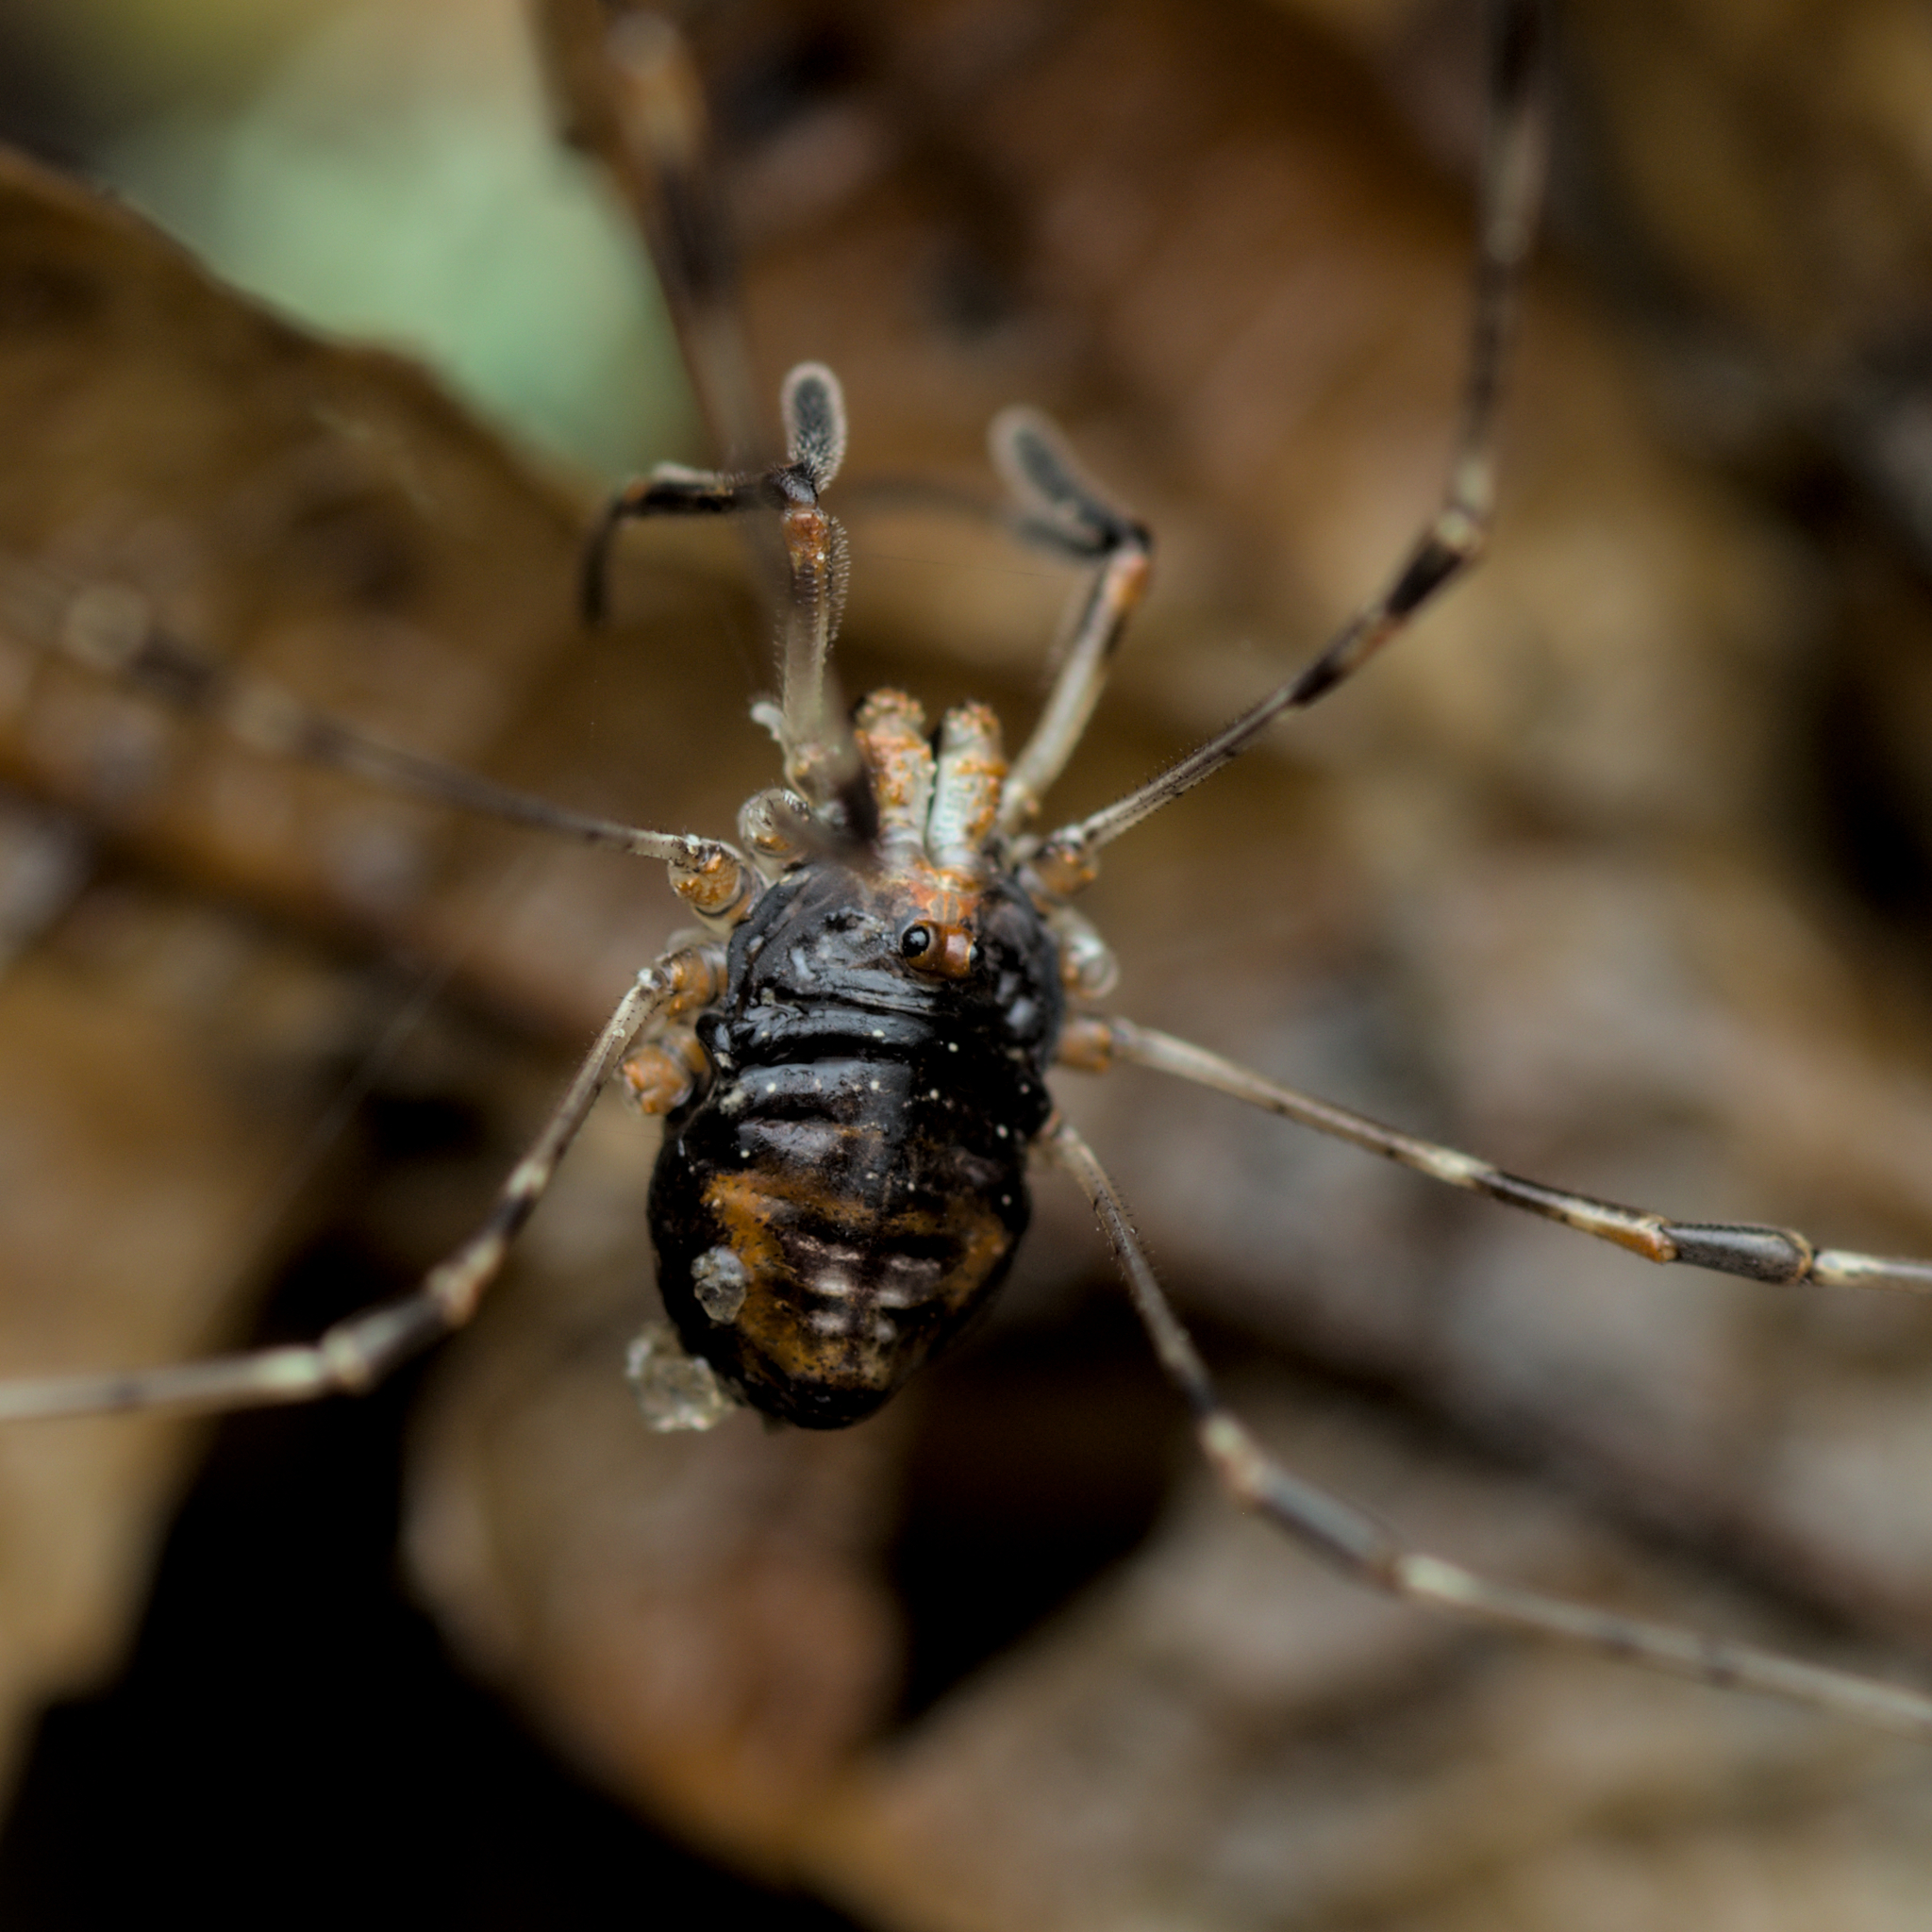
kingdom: Animalia
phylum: Arthropoda
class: Arachnida
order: Opiliones
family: Phalangiidae
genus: Dicranopalpus
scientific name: Dicranopalpus ramosus
